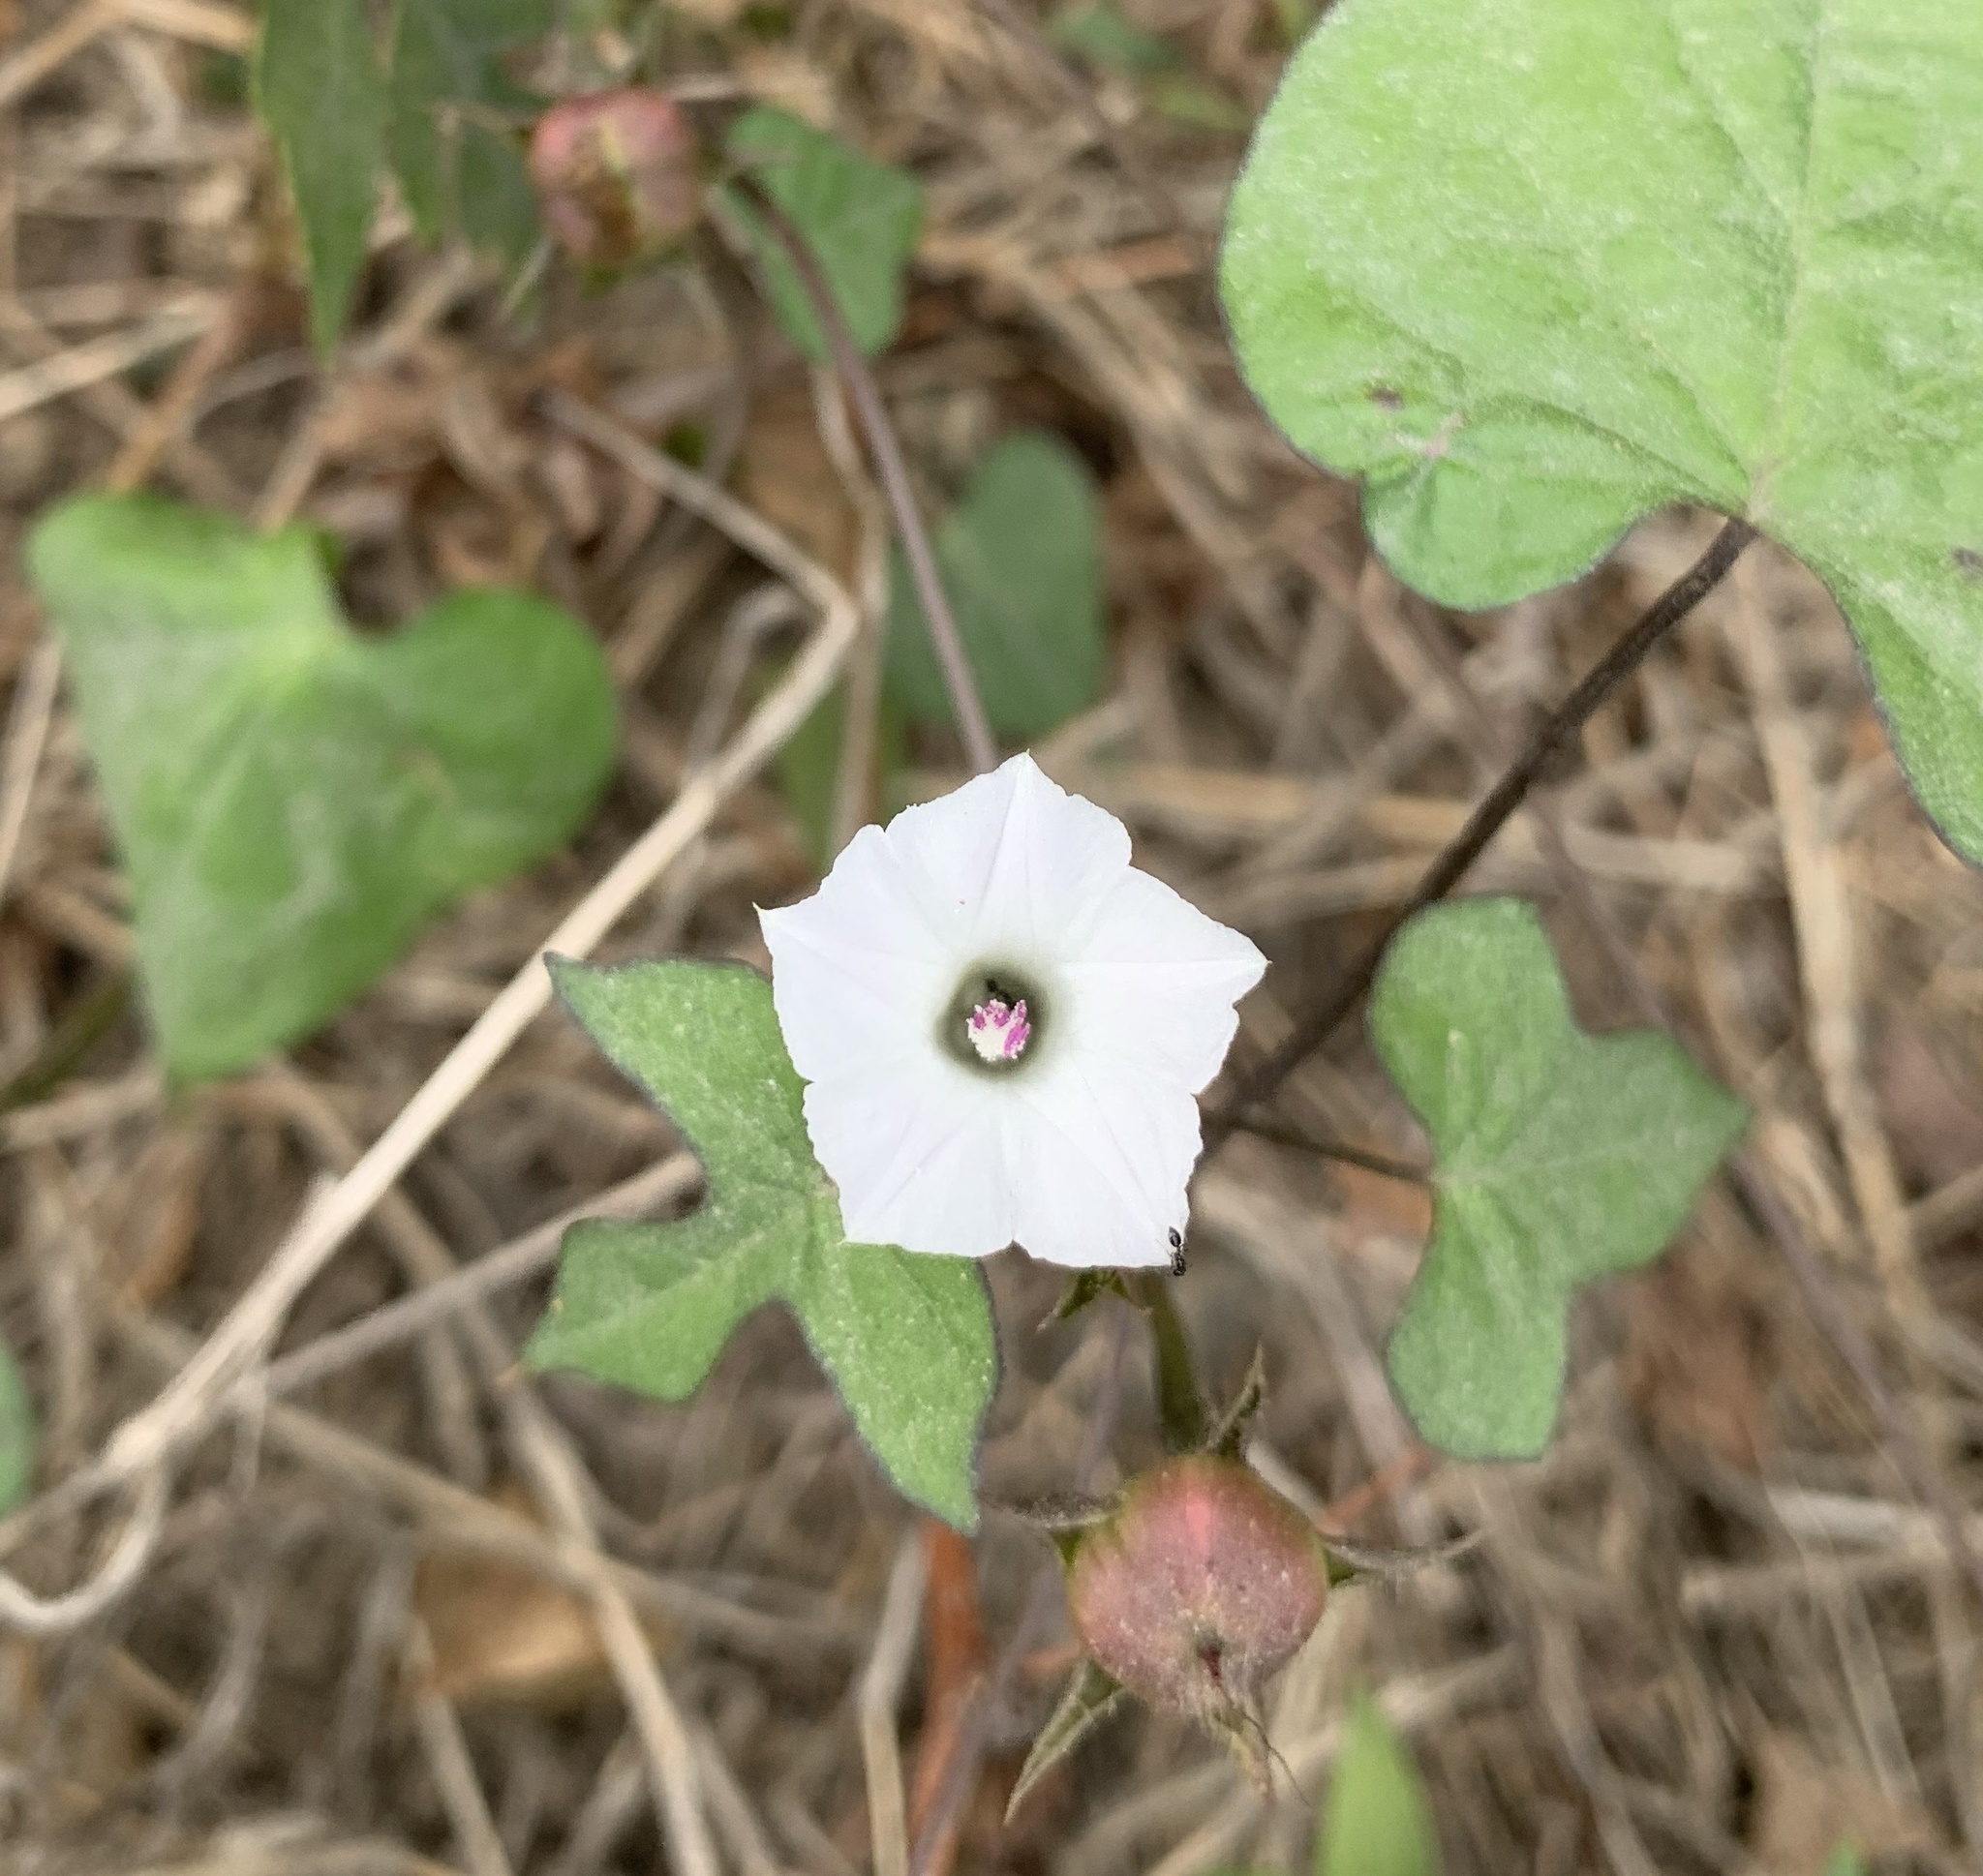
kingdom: Plantae
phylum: Tracheophyta
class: Magnoliopsida
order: Solanales
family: Convolvulaceae
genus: Ipomoea
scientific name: Ipomoea lacunosa
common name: White morning-glory
